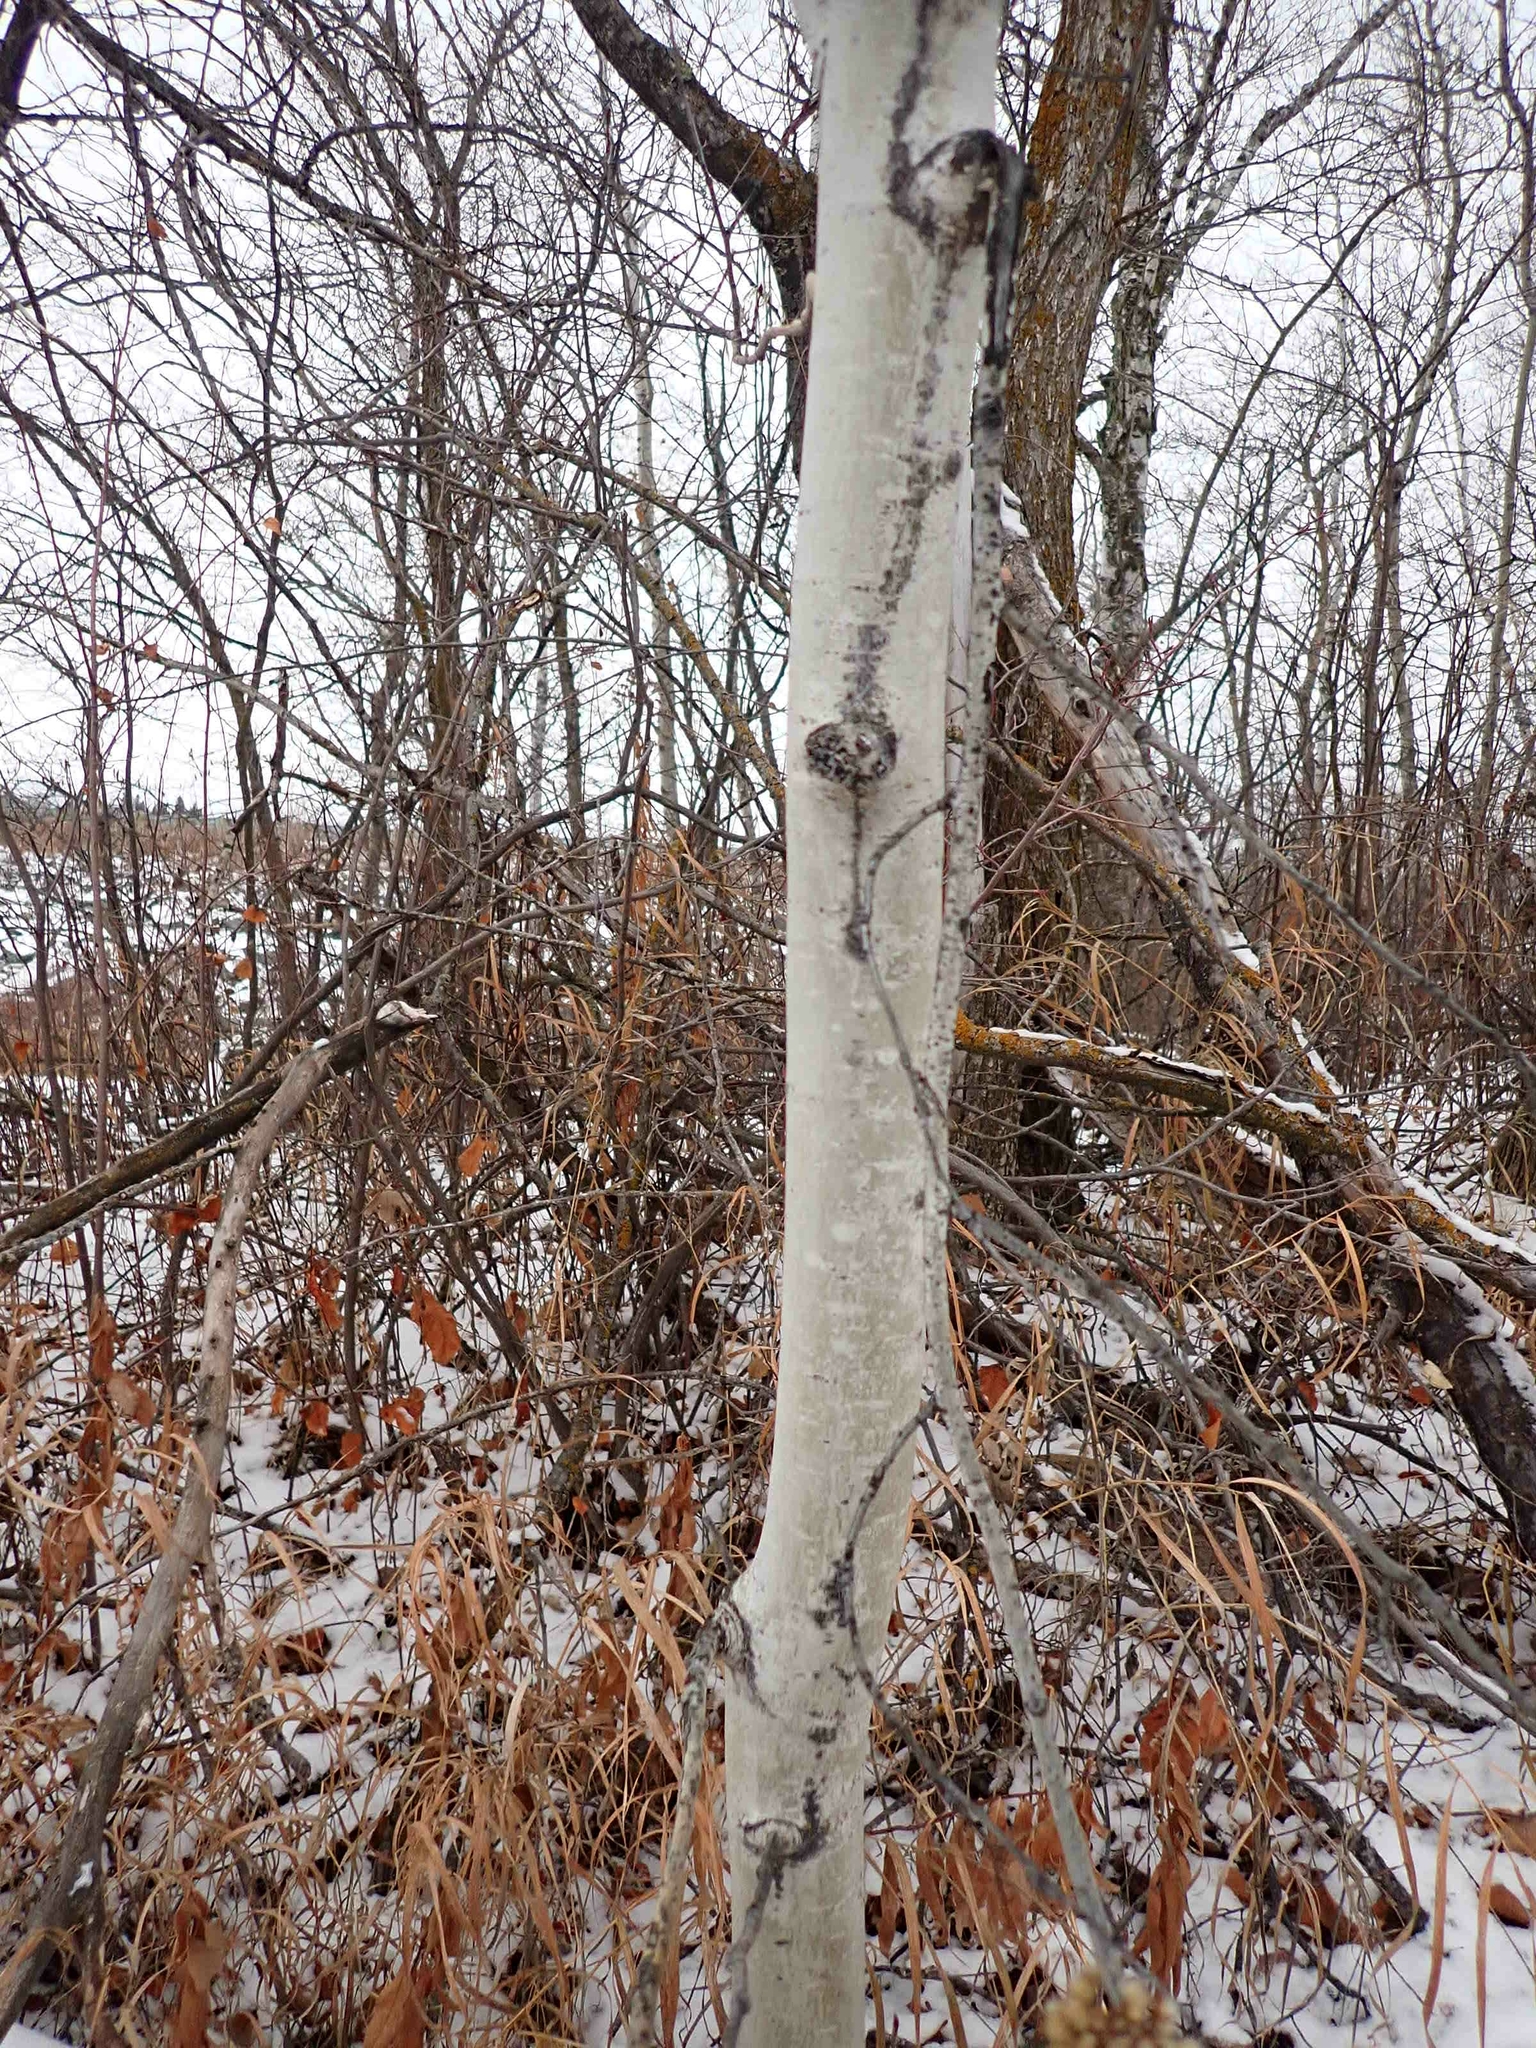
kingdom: Plantae
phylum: Tracheophyta
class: Magnoliopsida
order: Malpighiales
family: Salicaceae
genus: Populus
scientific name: Populus tremuloides
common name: Quaking aspen
